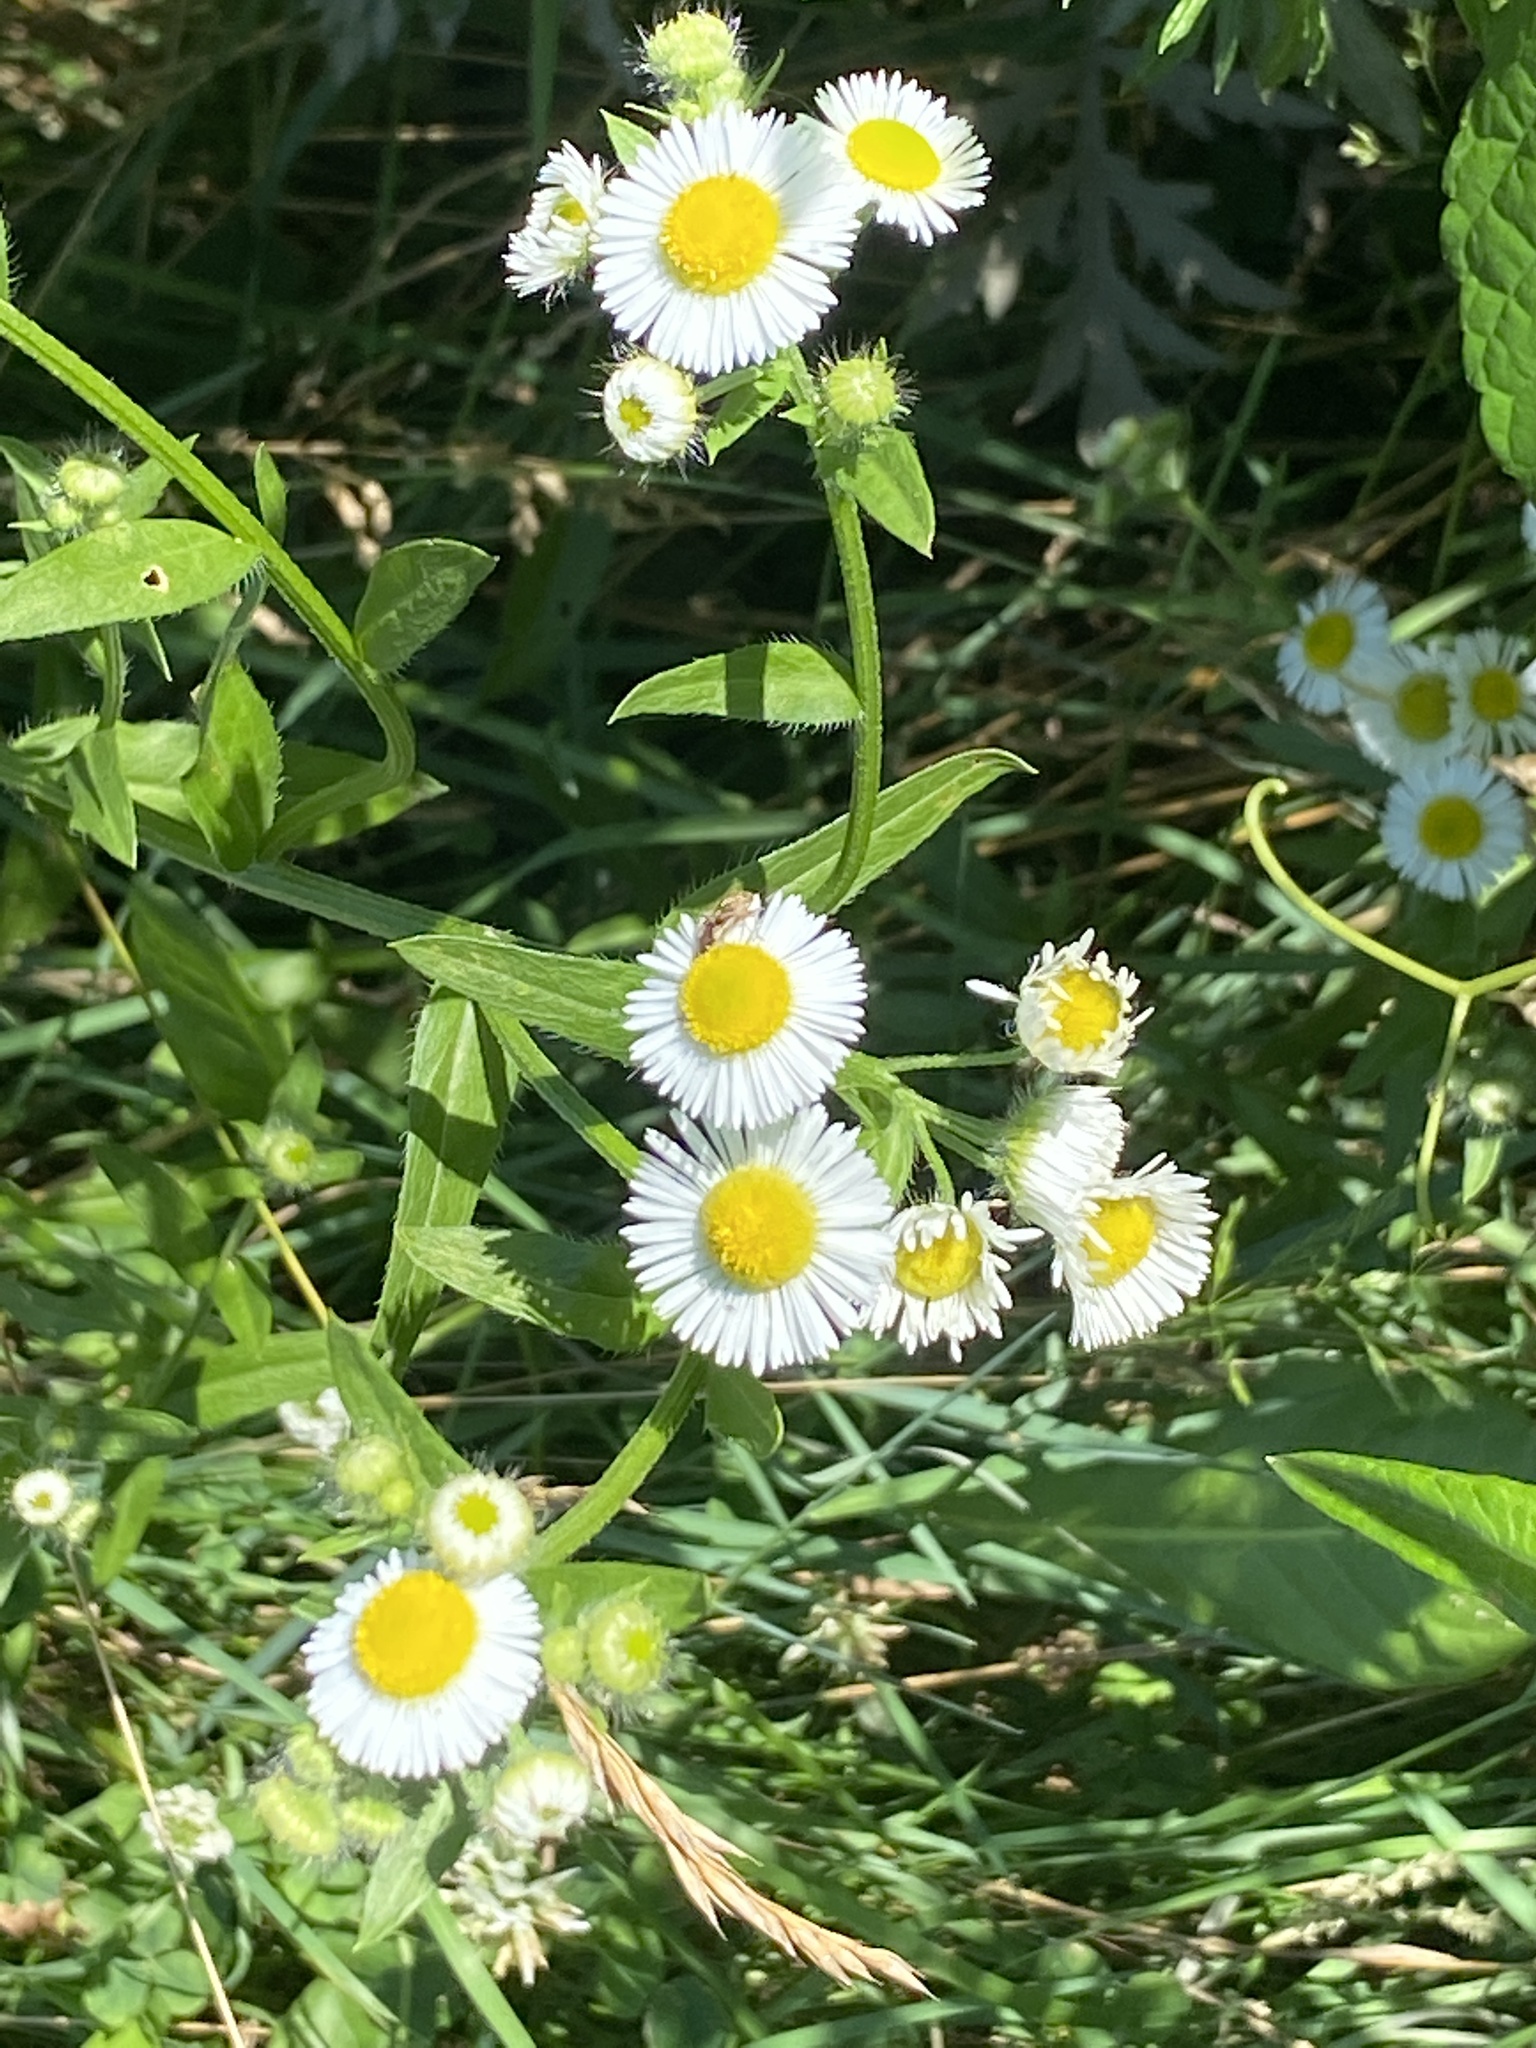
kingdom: Plantae
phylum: Tracheophyta
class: Magnoliopsida
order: Asterales
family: Asteraceae
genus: Erigeron
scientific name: Erigeron strigosus
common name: Common eastern fleabane
